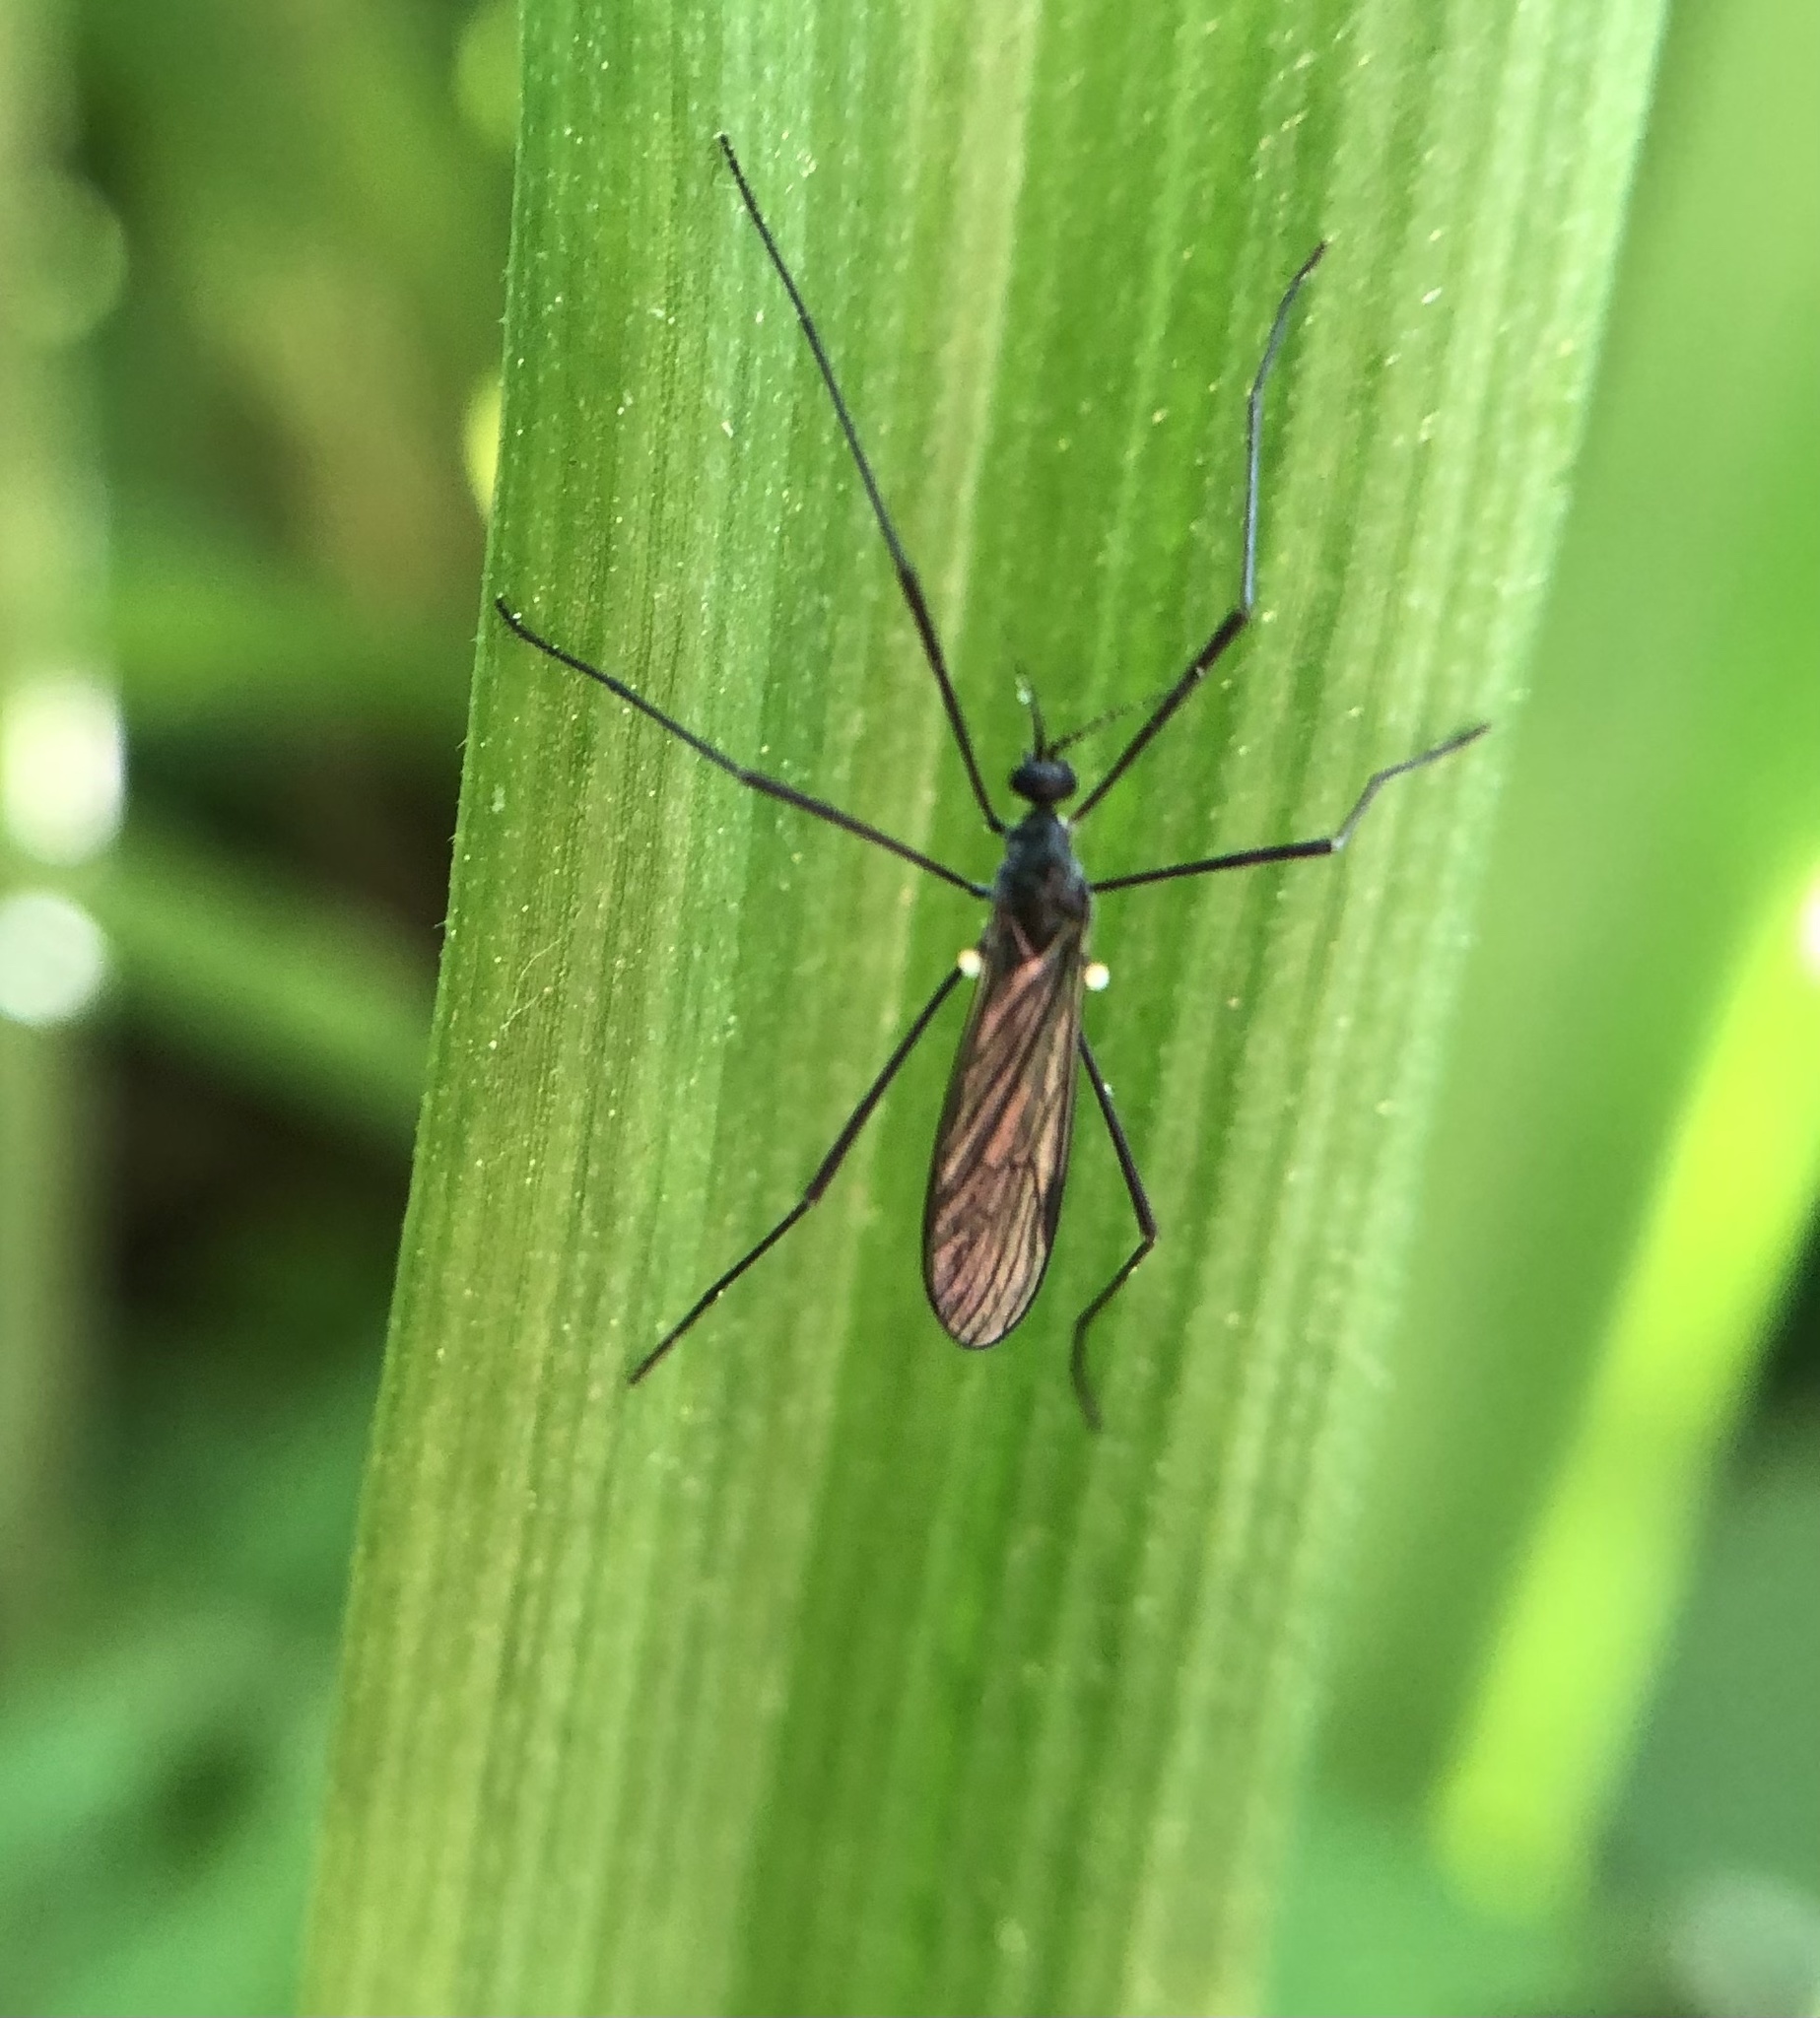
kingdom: Animalia
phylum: Arthropoda
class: Insecta
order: Diptera
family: Limoniidae
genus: Gnophomyia
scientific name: Gnophomyia tristissima
